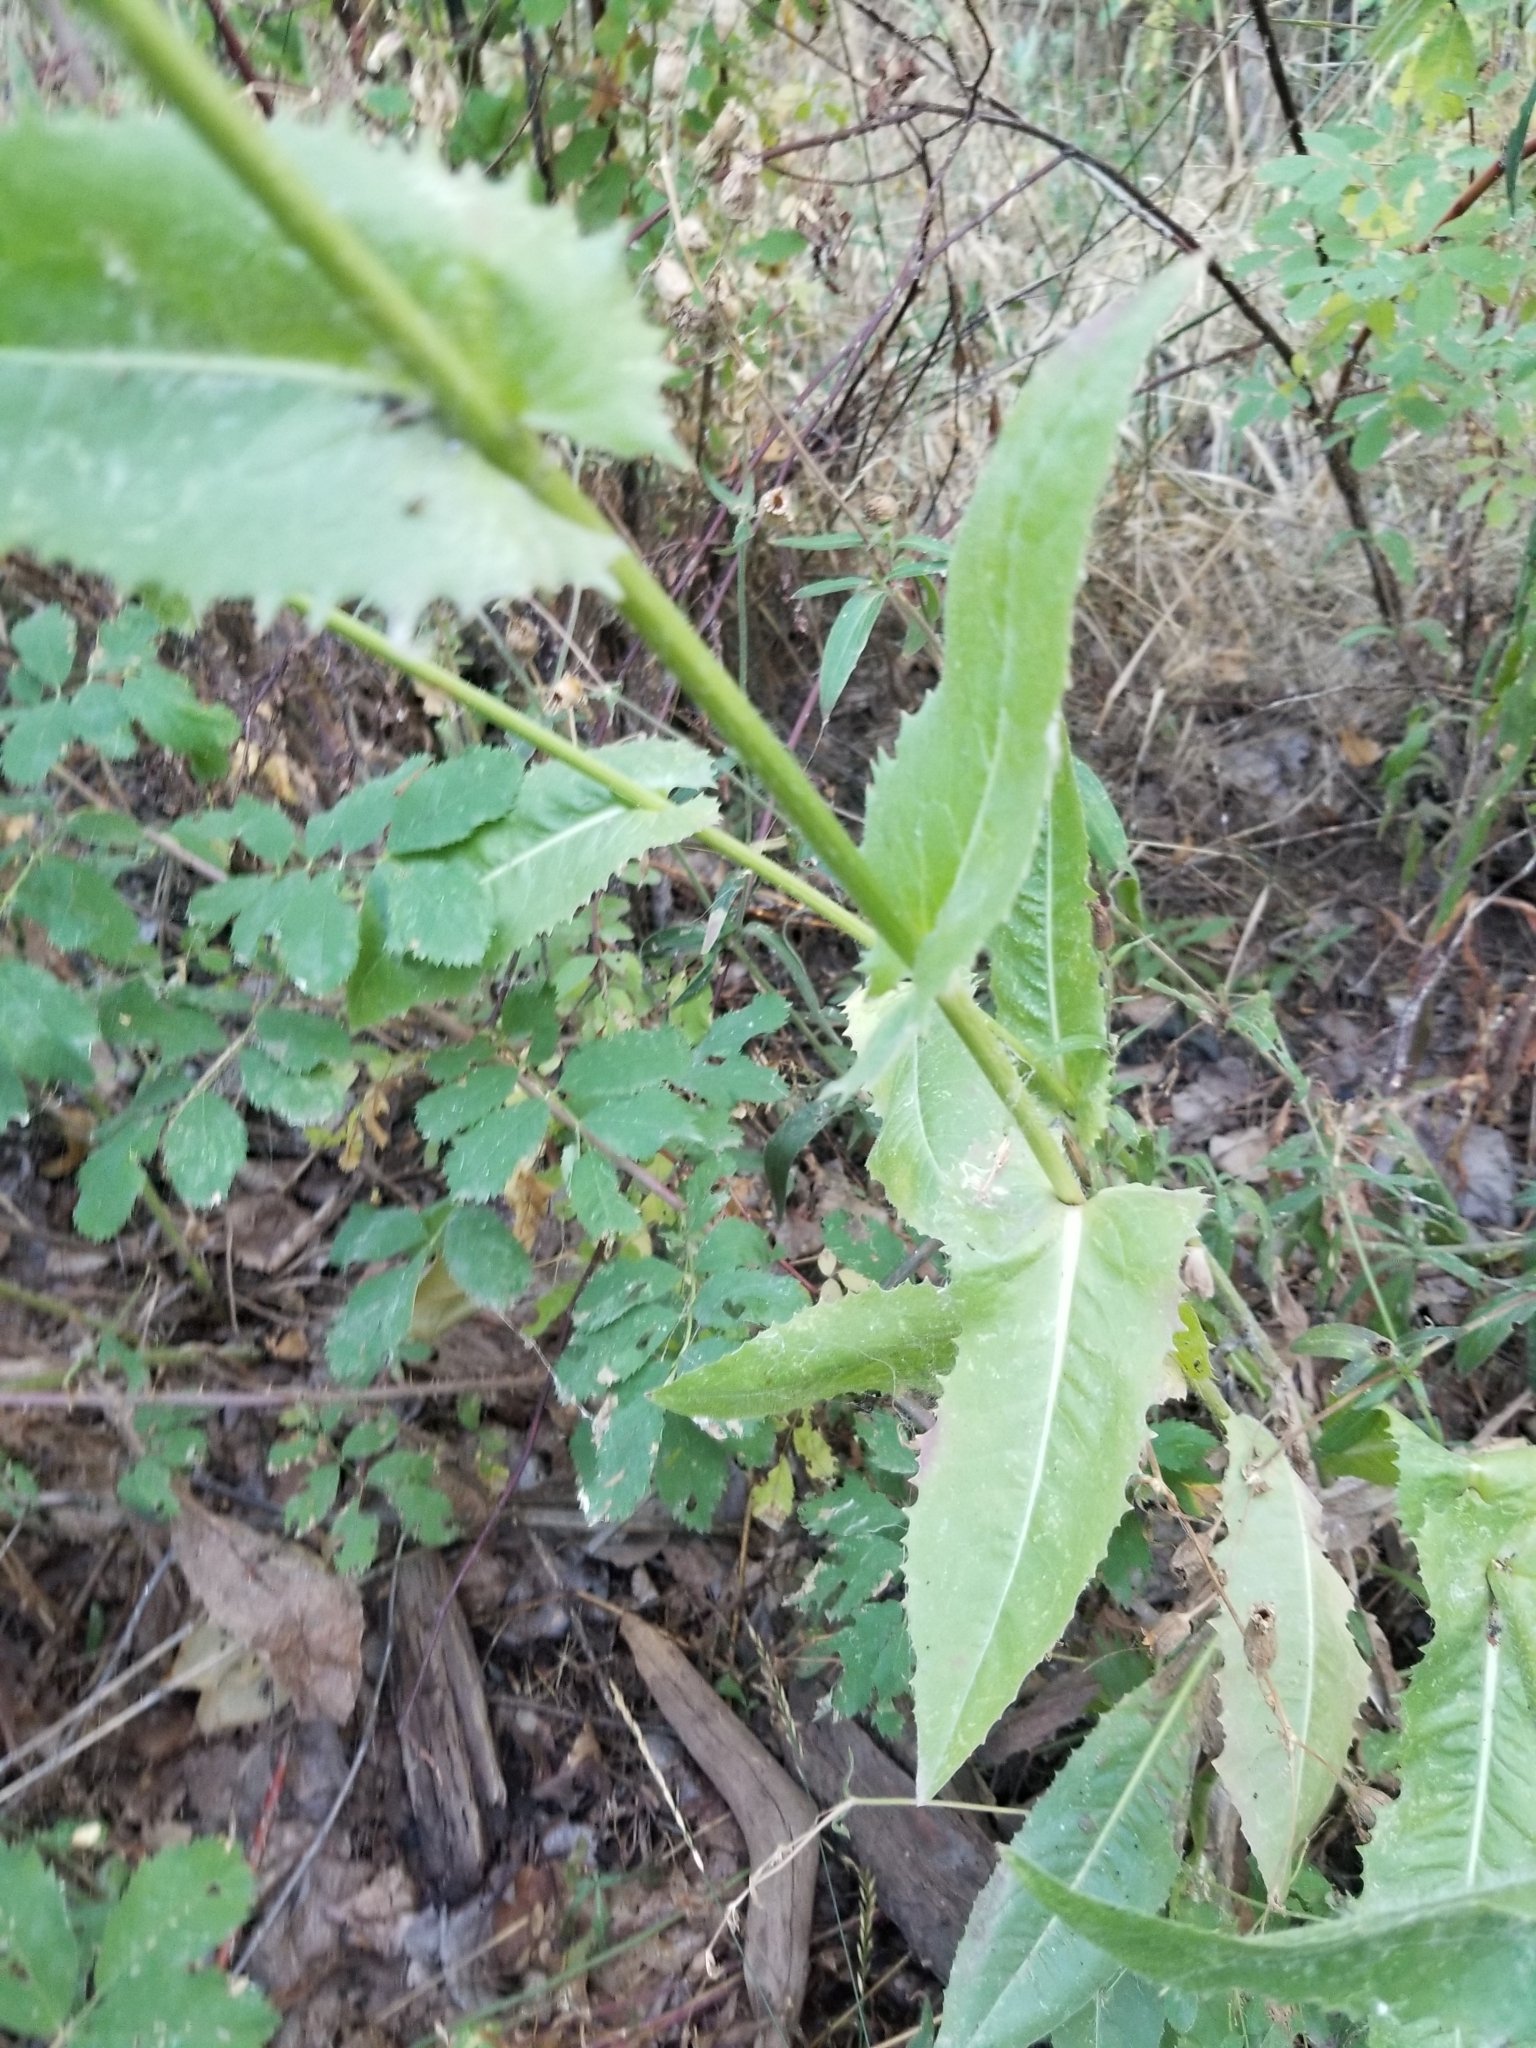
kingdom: Plantae
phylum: Tracheophyta
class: Magnoliopsida
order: Asterales
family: Asteraceae
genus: Cichorium
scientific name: Cichorium intybus
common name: Chicory
